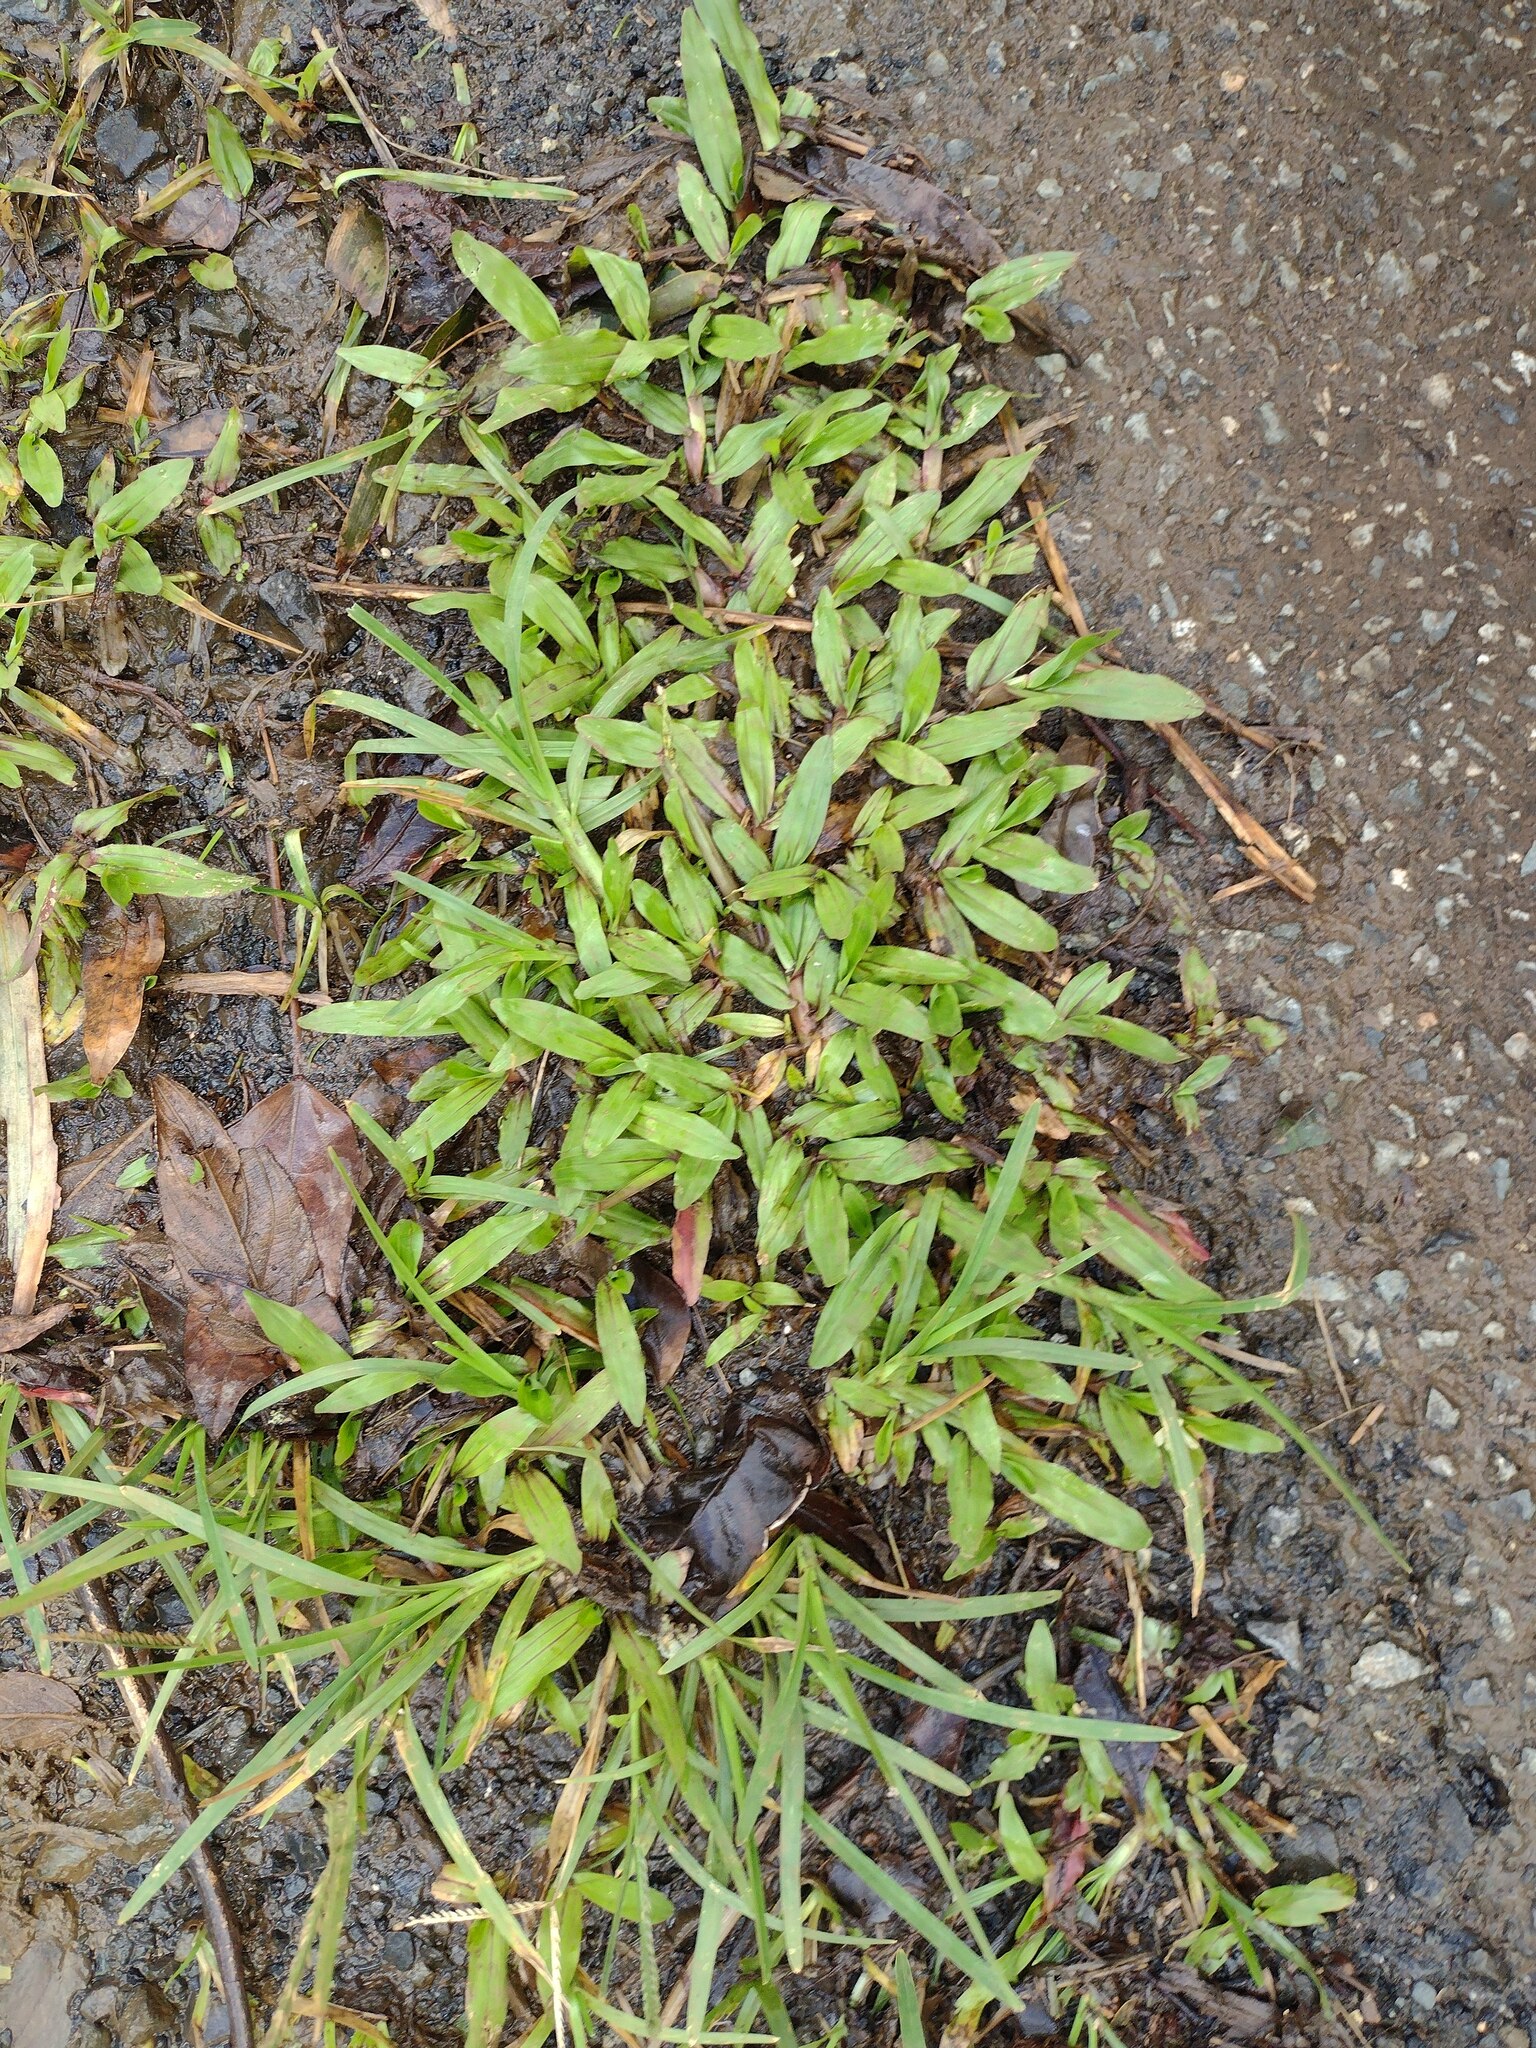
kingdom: Plantae
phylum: Tracheophyta
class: Liliopsida
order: Poales
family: Poaceae
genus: Axonopus
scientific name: Axonopus compressus
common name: American carpet grass
